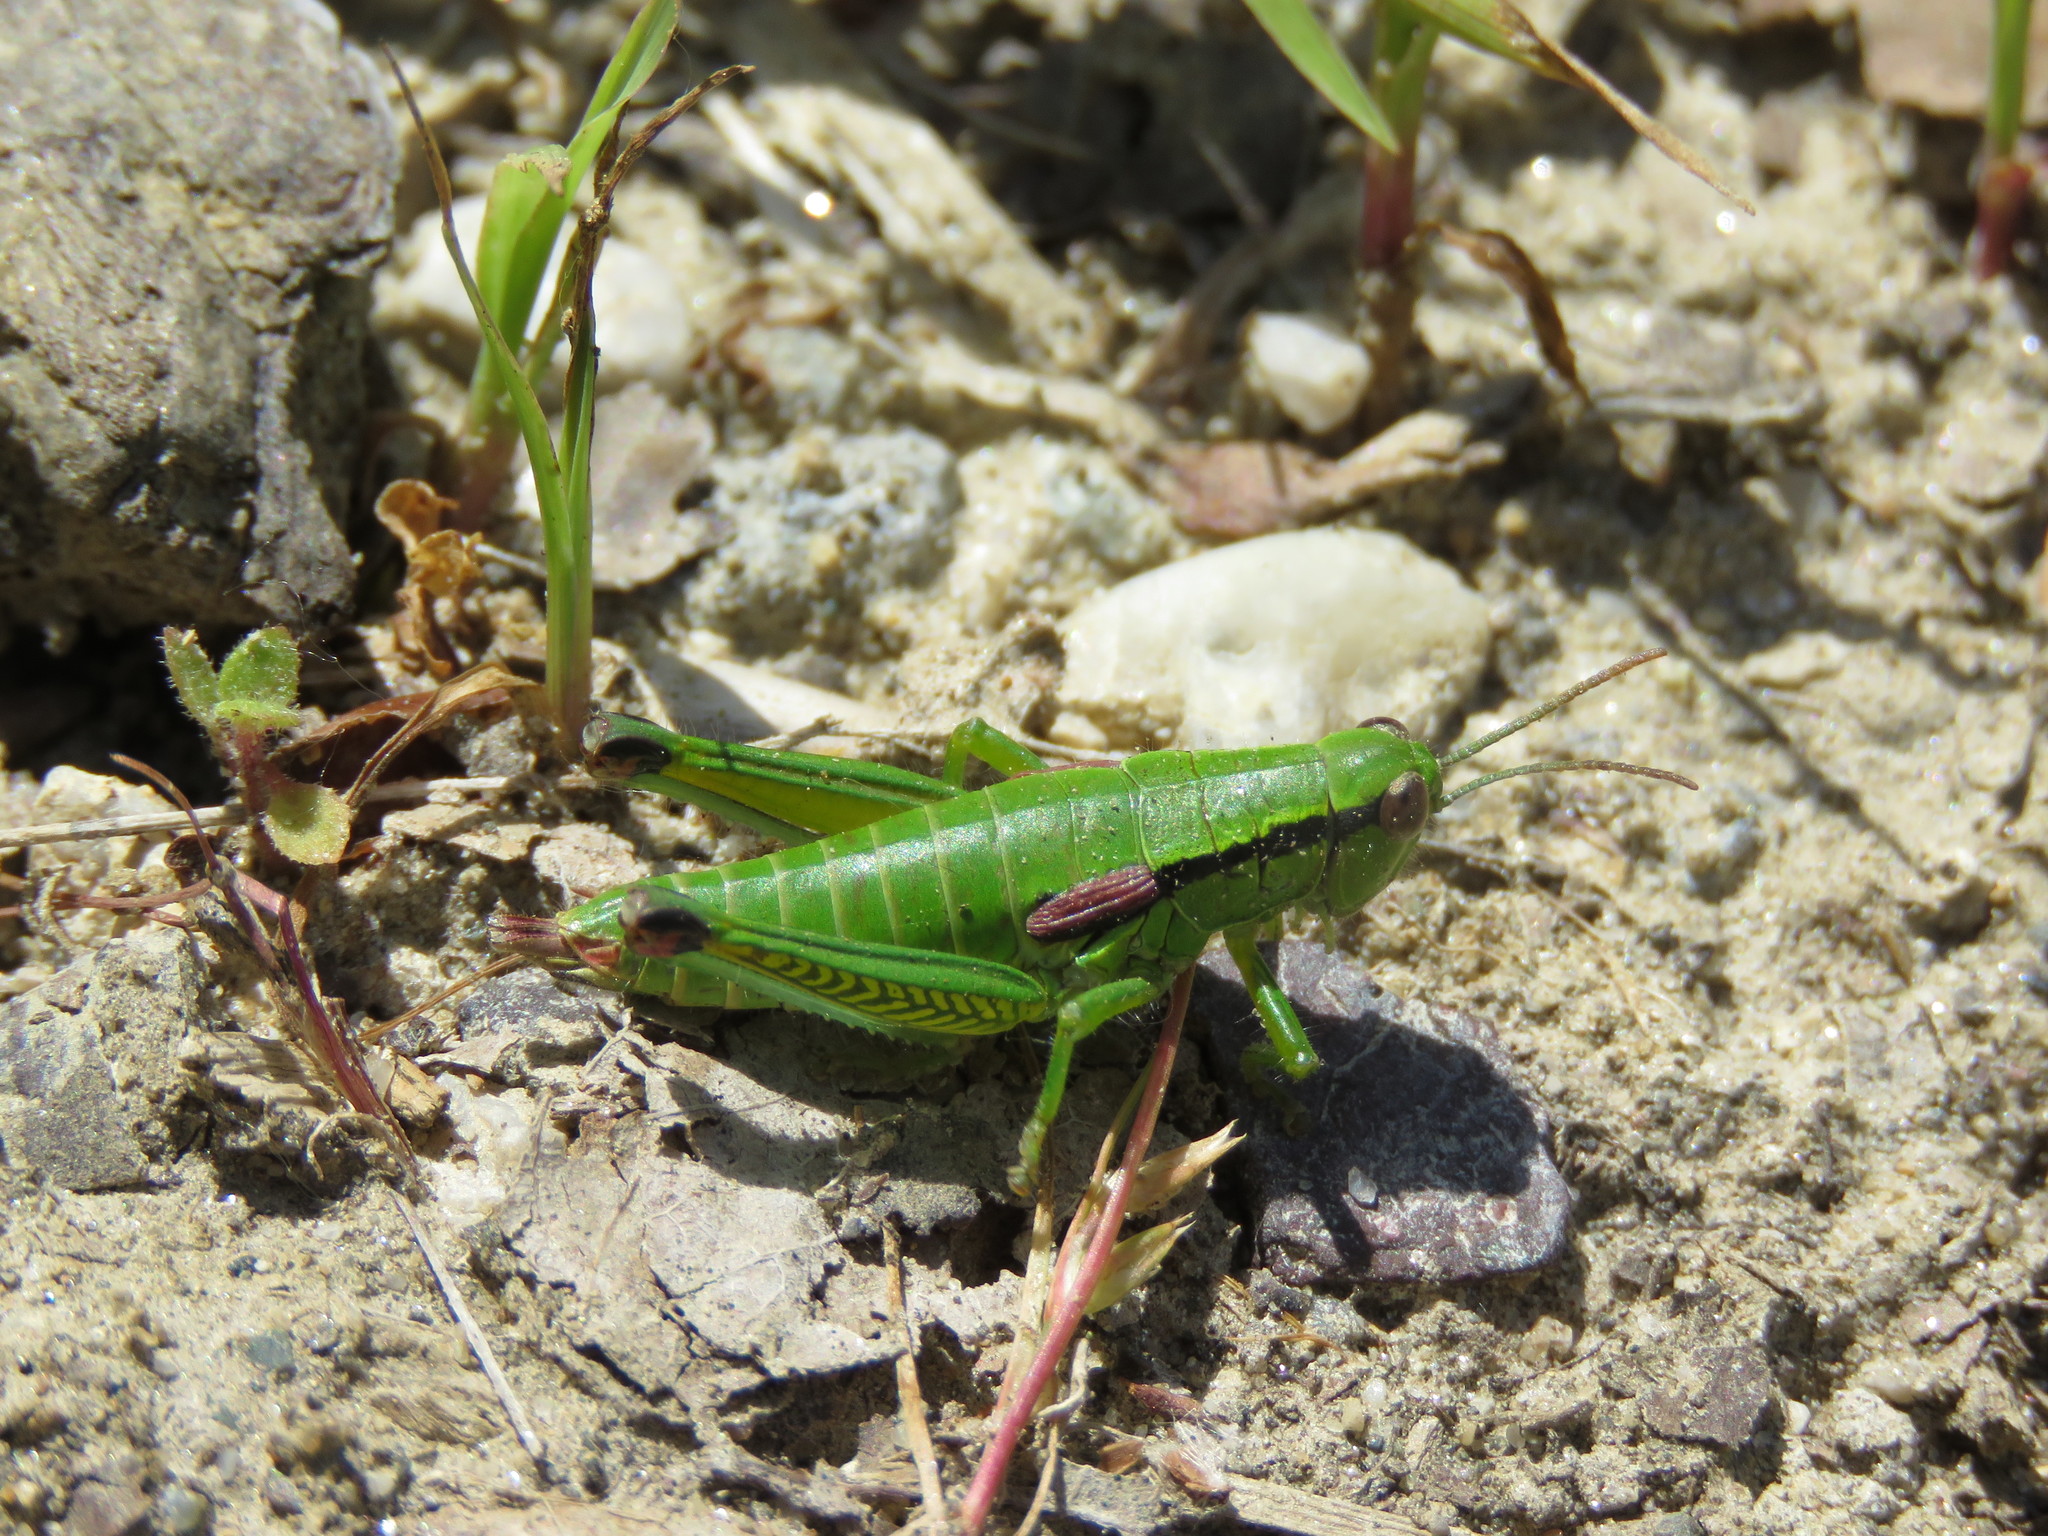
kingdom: Animalia
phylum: Arthropoda
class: Insecta
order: Orthoptera
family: Acrididae
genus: Odontopodisma
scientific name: Odontopodisma schmidtii
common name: Schmidt's mountain grasshopper
